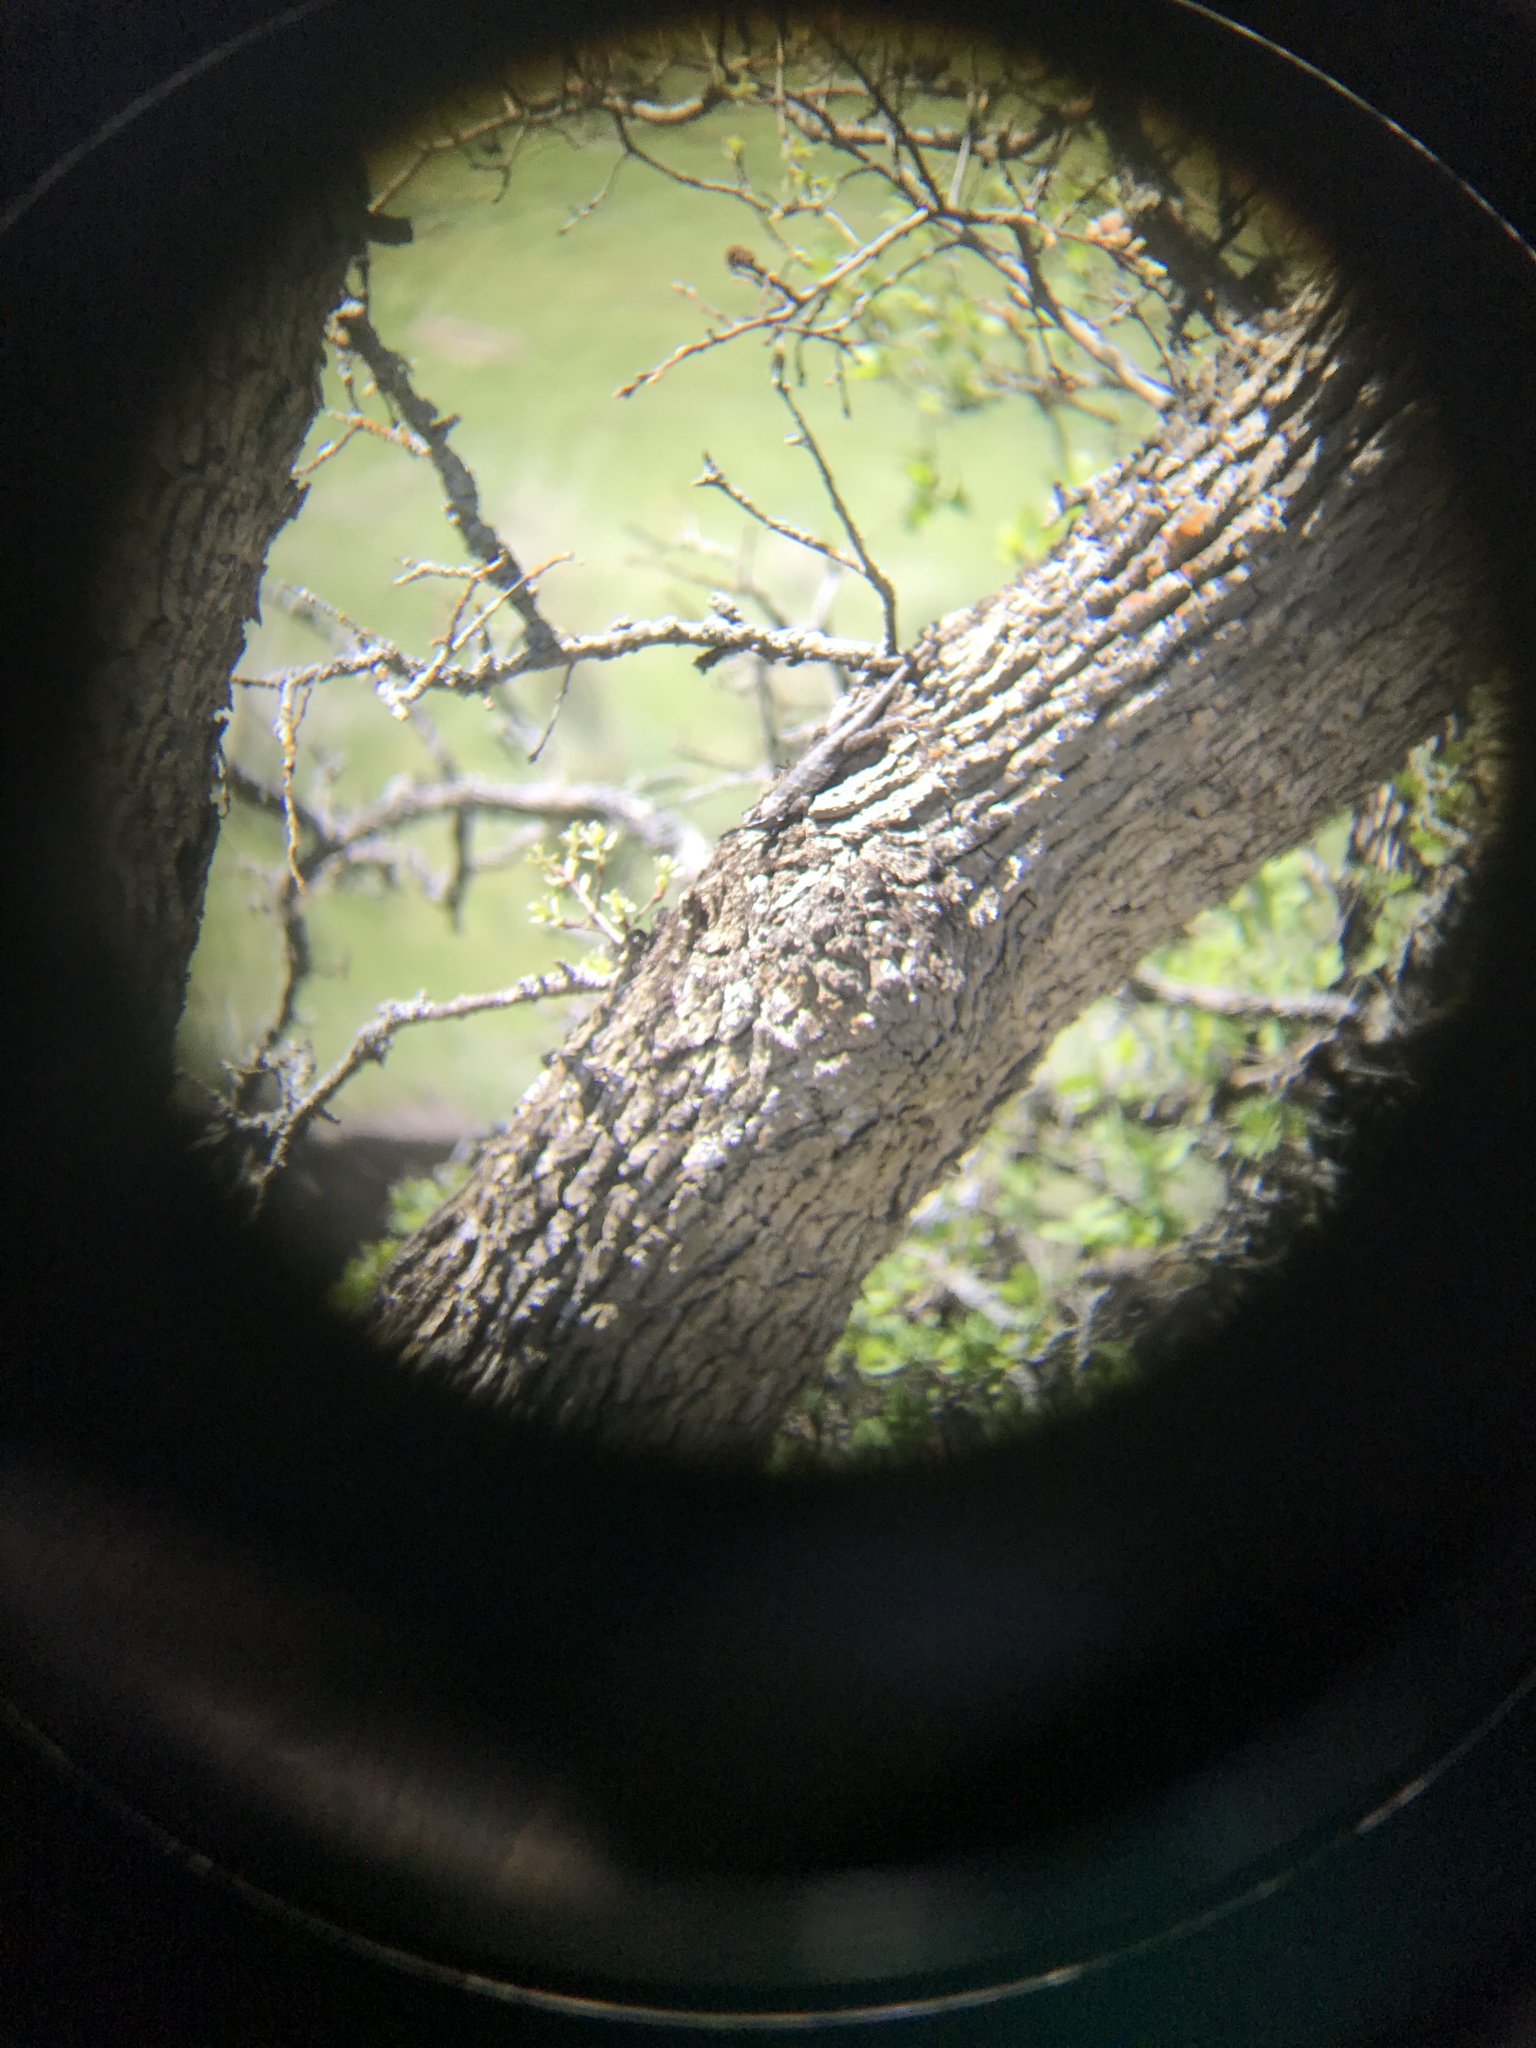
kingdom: Animalia
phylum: Chordata
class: Squamata
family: Phrynosomatidae
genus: Sceloporus
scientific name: Sceloporus occidentalis
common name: Western fence lizard
